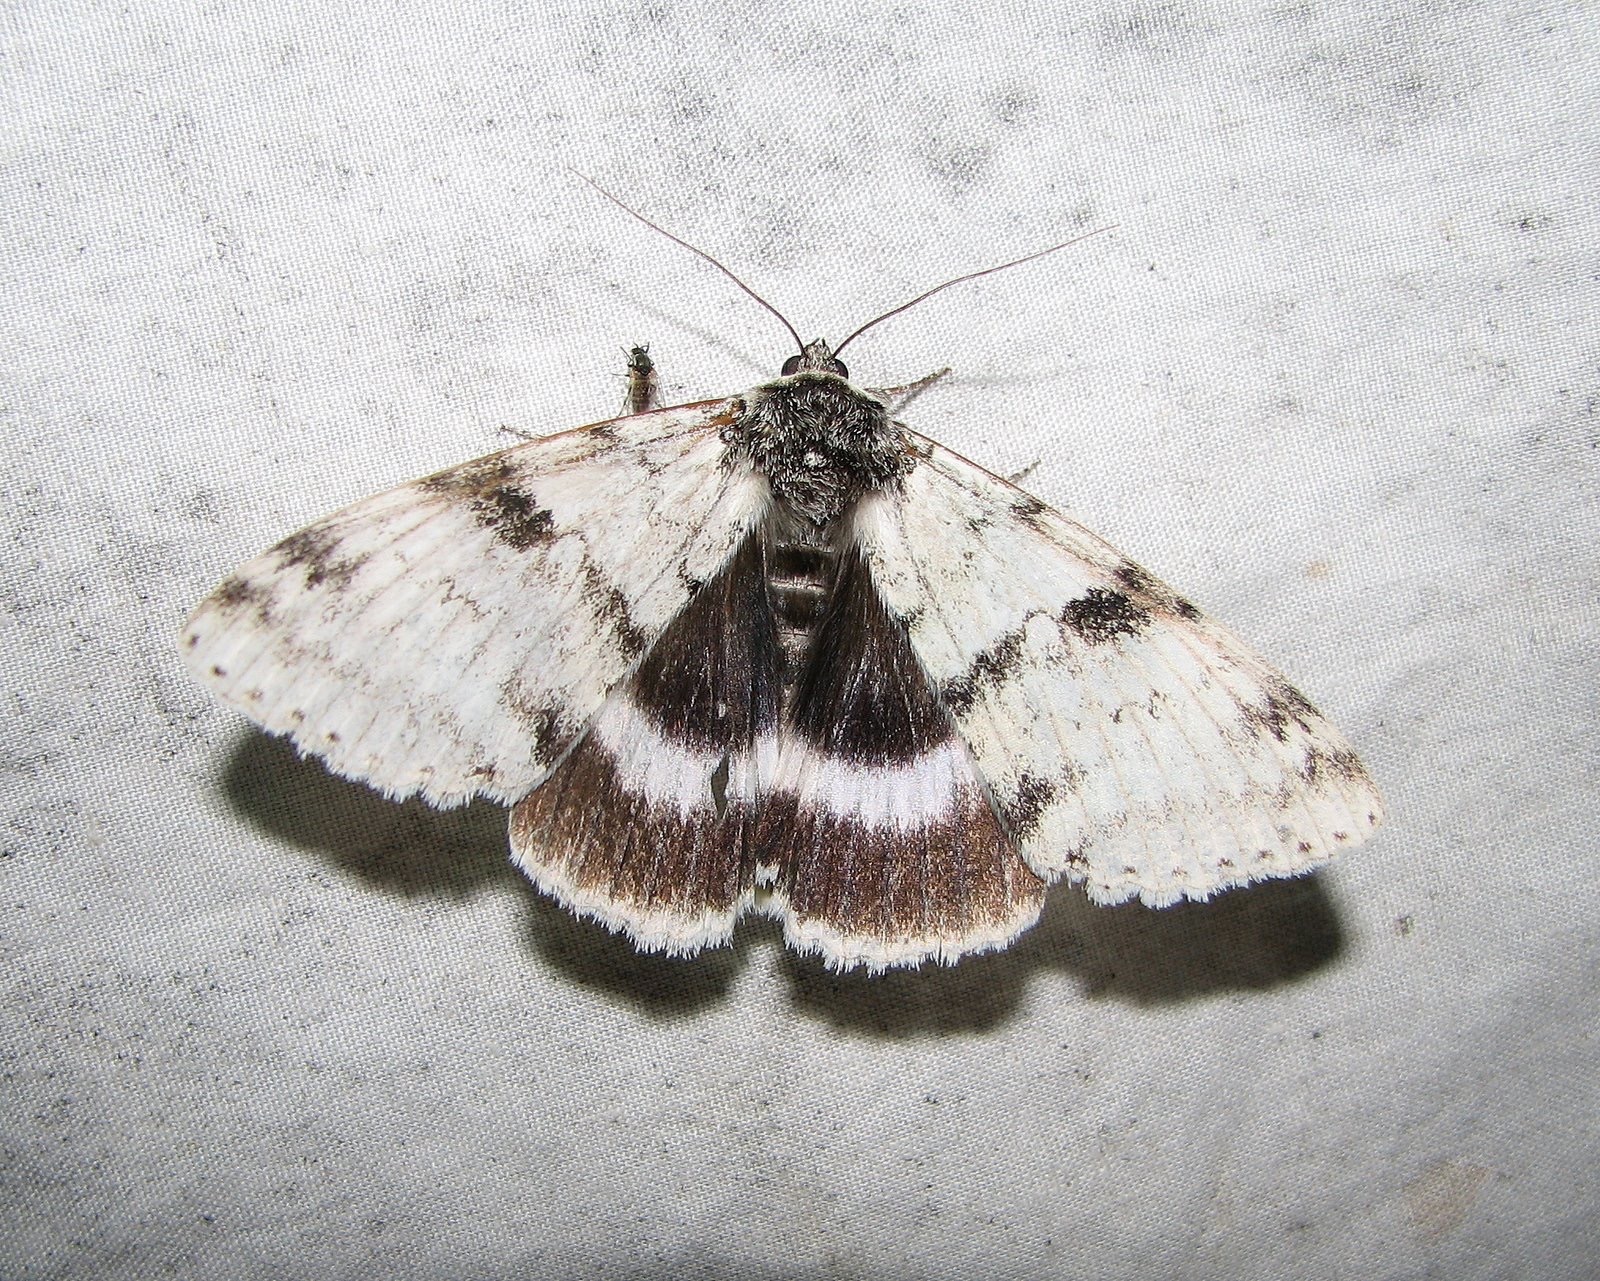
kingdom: Animalia
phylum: Arthropoda
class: Insecta
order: Lepidoptera
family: Erebidae
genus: Catocala
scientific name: Catocala relicta
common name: White underwing
